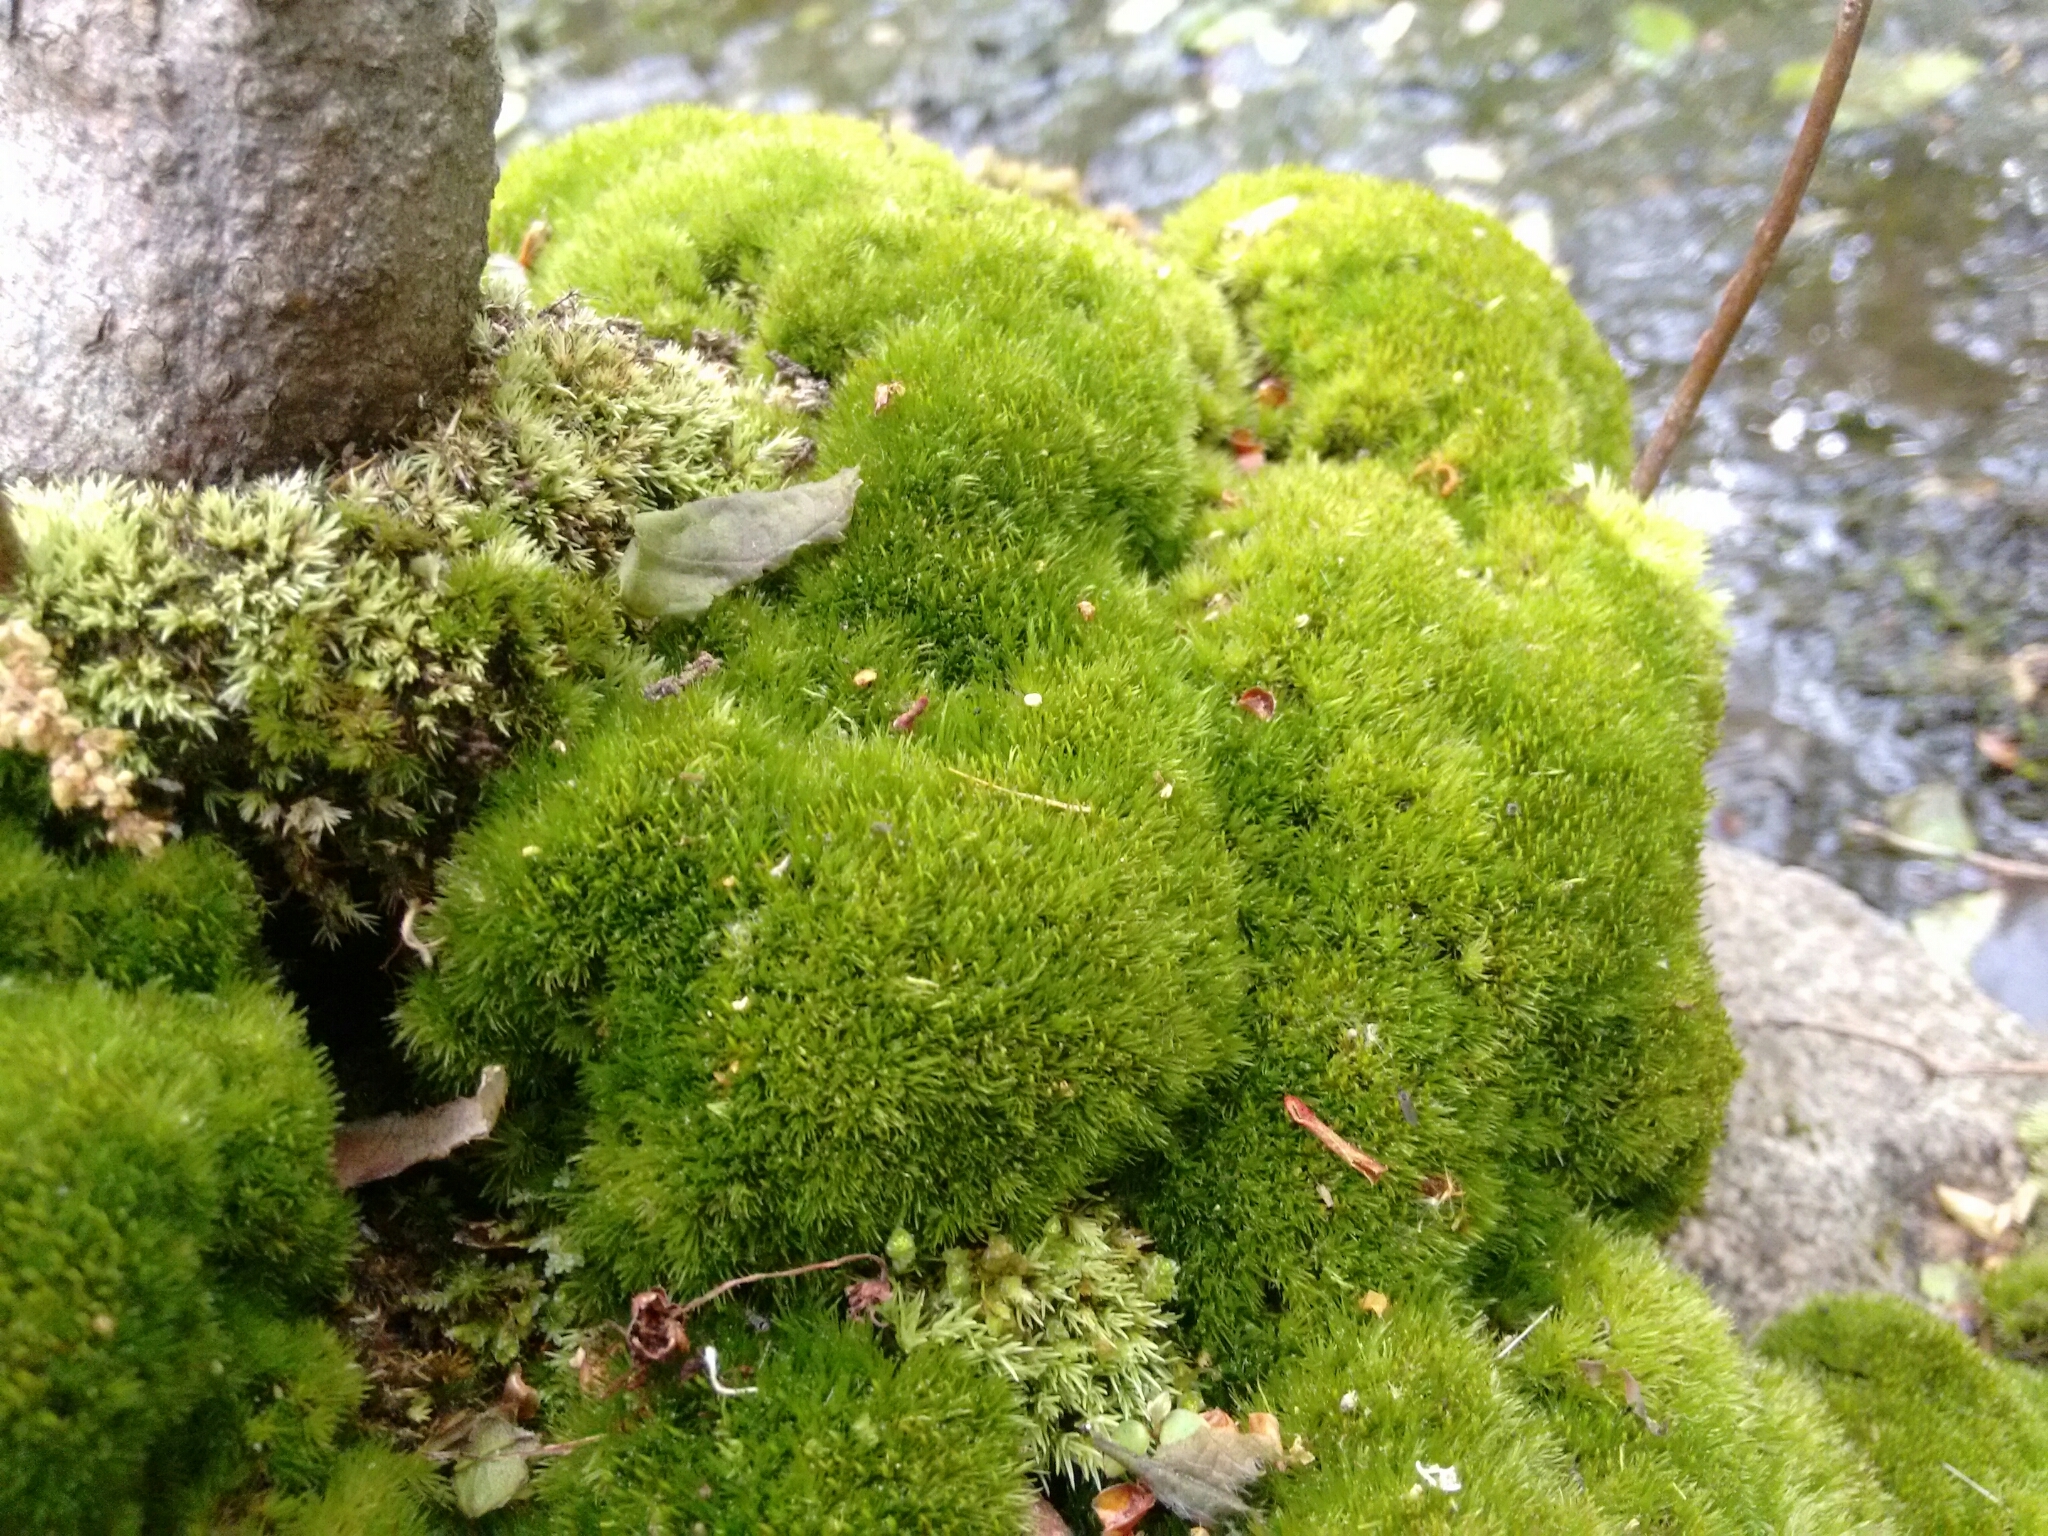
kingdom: Plantae
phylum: Bryophyta
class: Bryopsida
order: Dicranales
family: Dicranaceae
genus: Orthodicranum
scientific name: Orthodicranum flagellare
